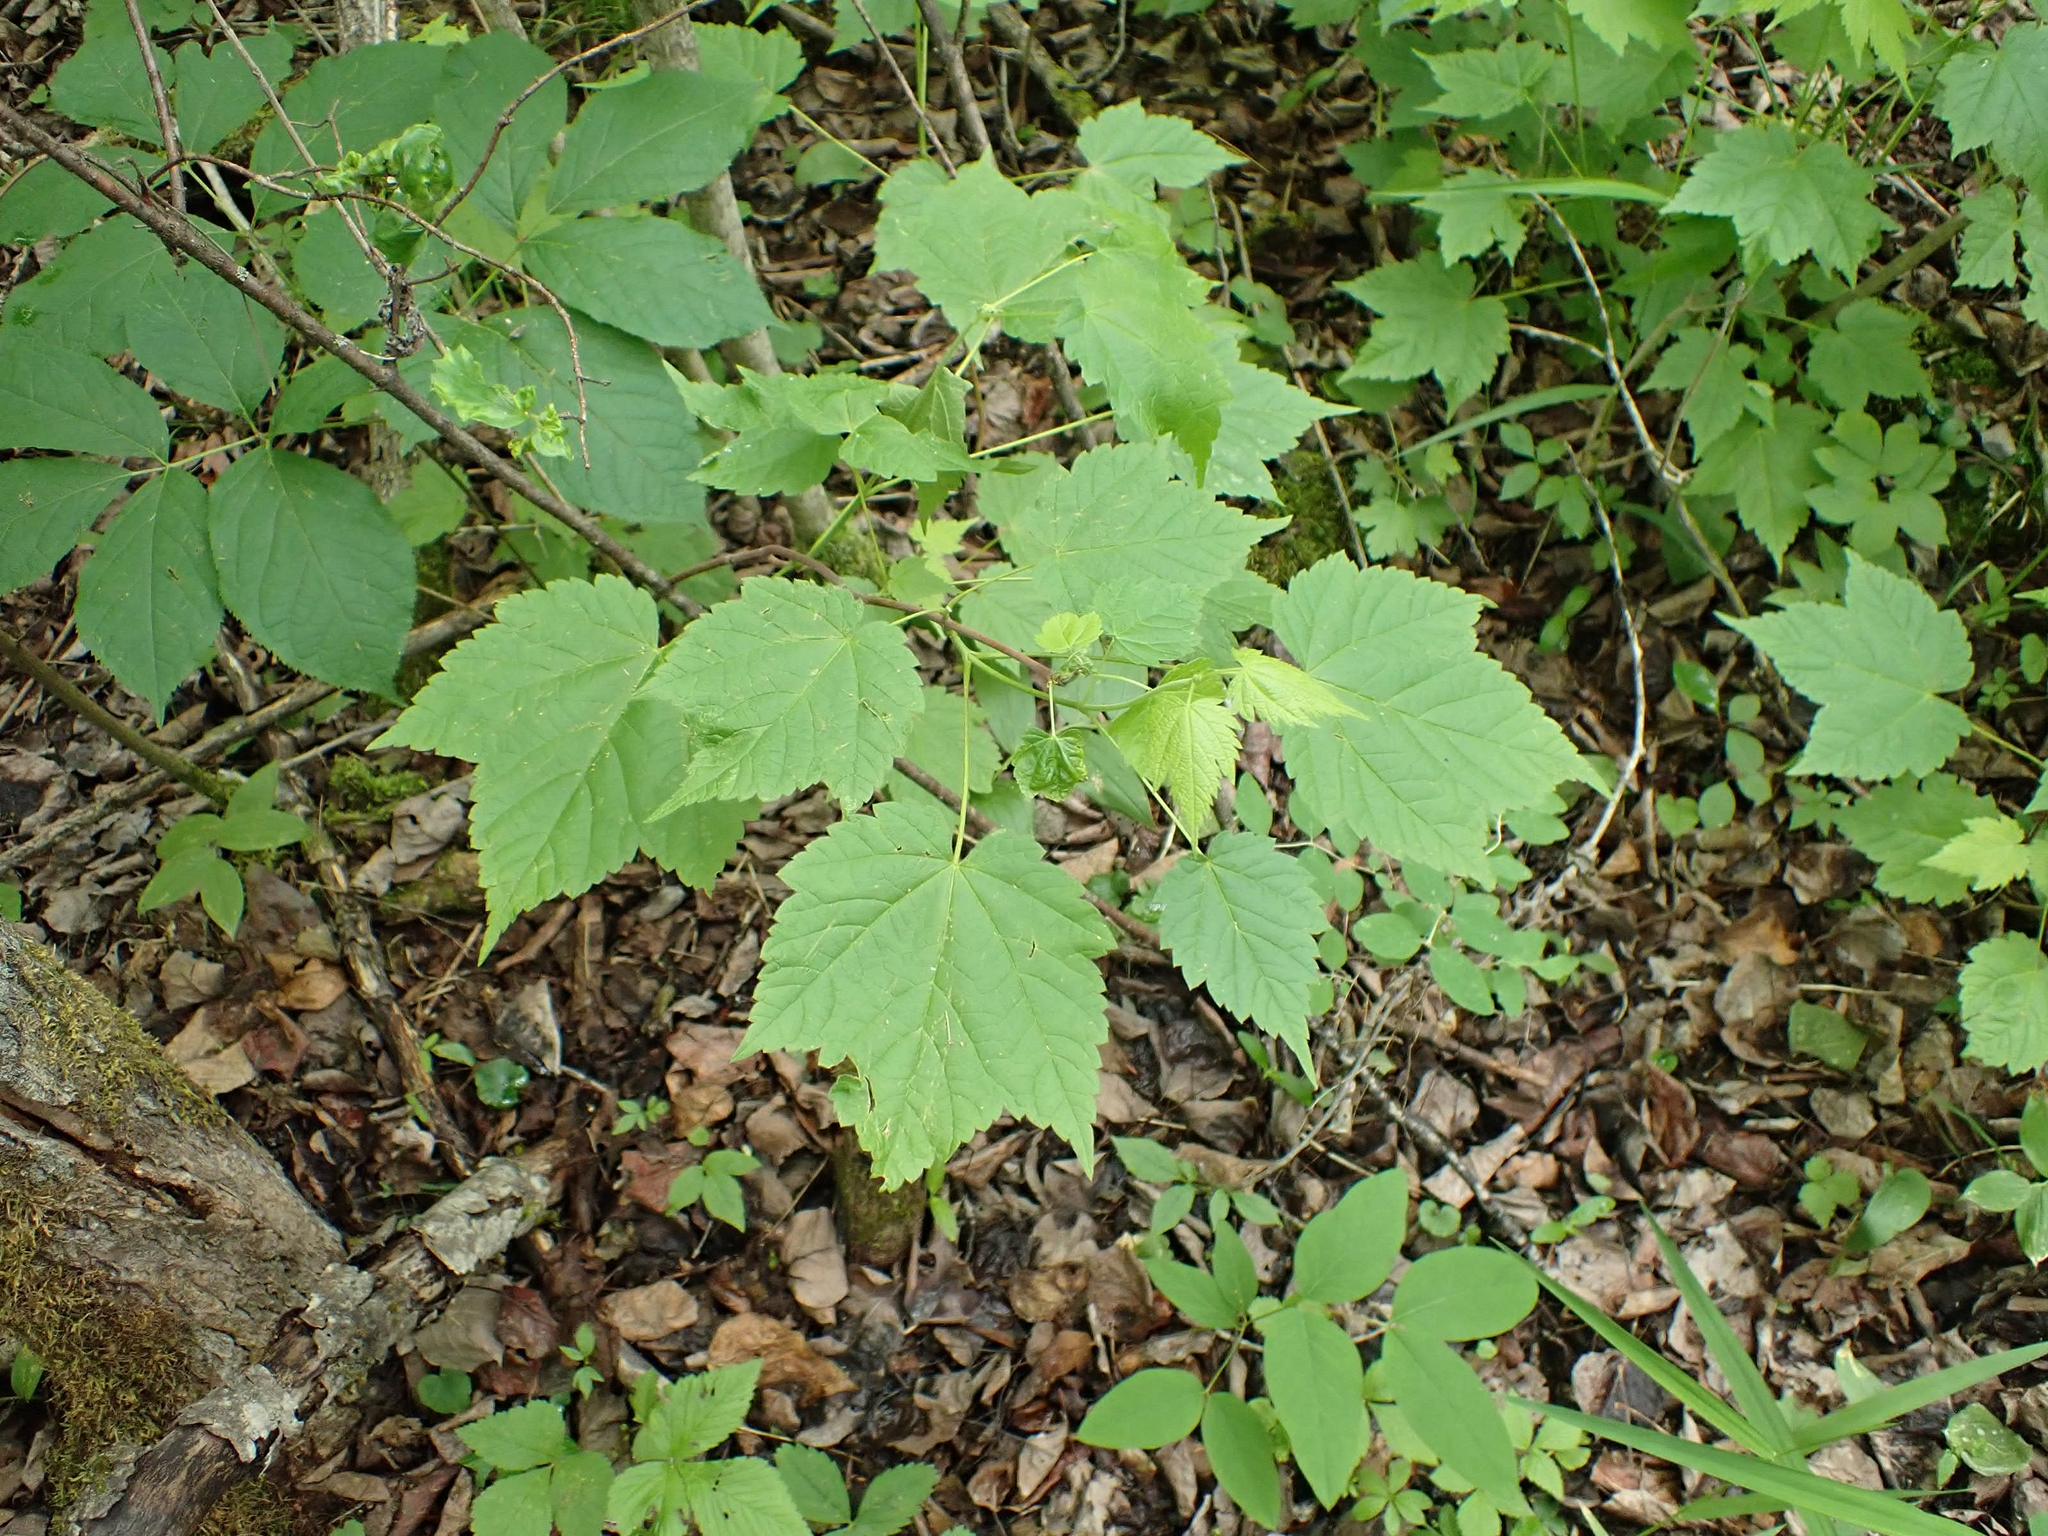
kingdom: Plantae
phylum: Tracheophyta
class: Magnoliopsida
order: Sapindales
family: Sapindaceae
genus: Acer
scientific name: Acer spicatum
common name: Mountain maple
